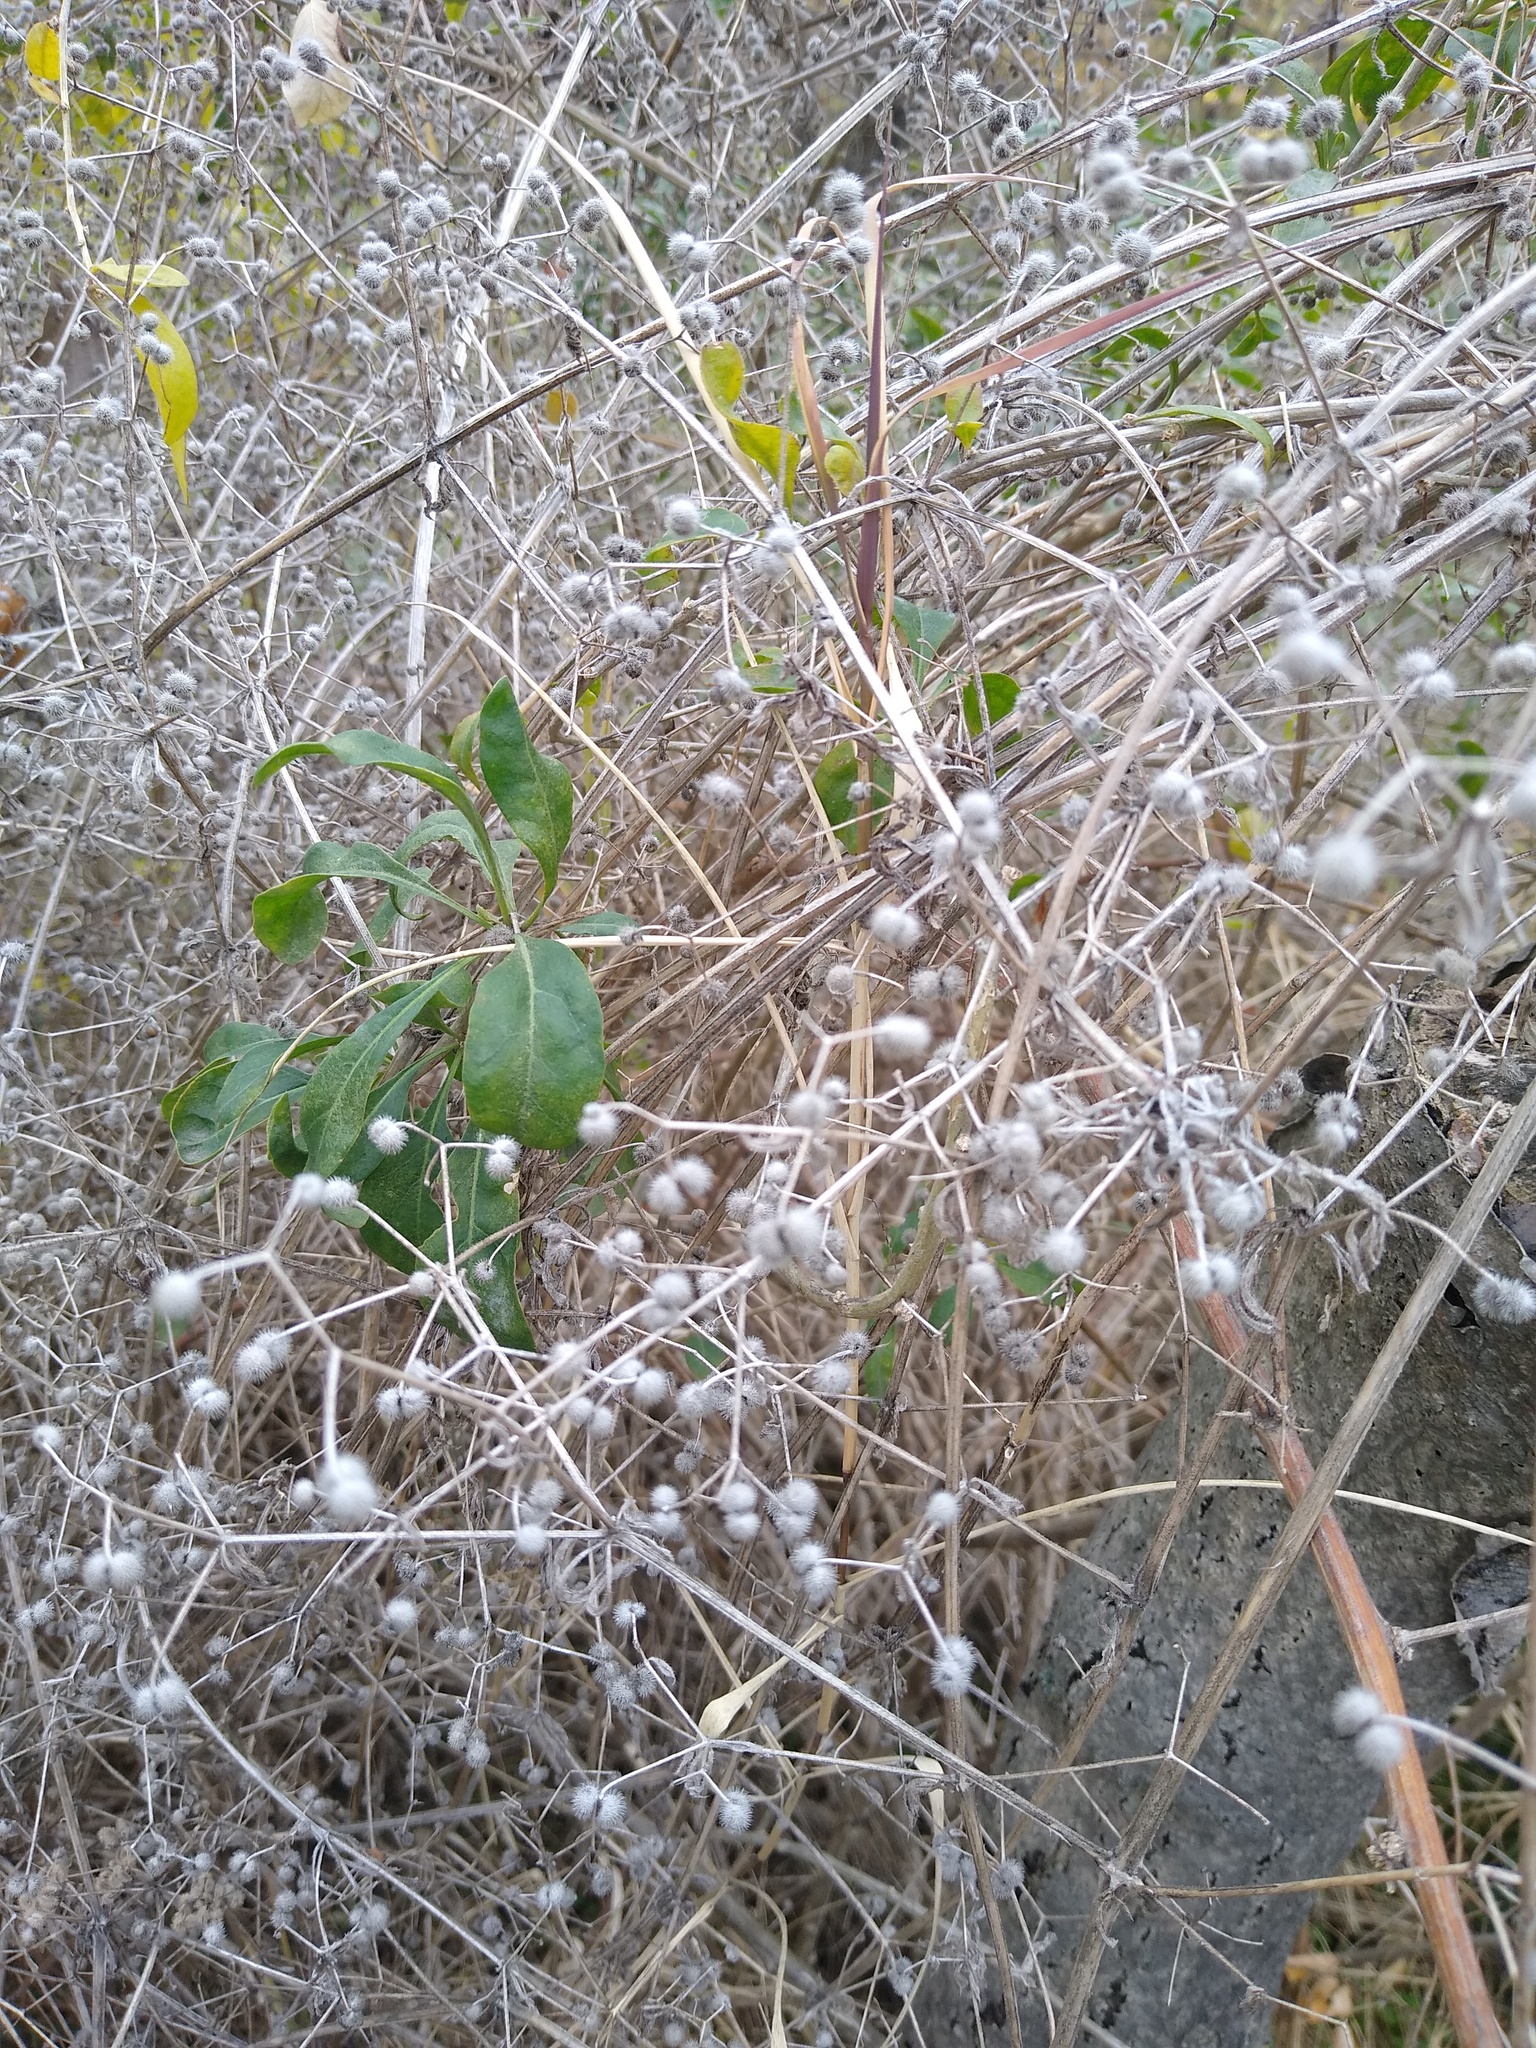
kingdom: Plantae
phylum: Tracheophyta
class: Magnoliopsida
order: Gentianales
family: Rubiaceae
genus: Galium
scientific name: Galium aparine
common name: Cleavers
